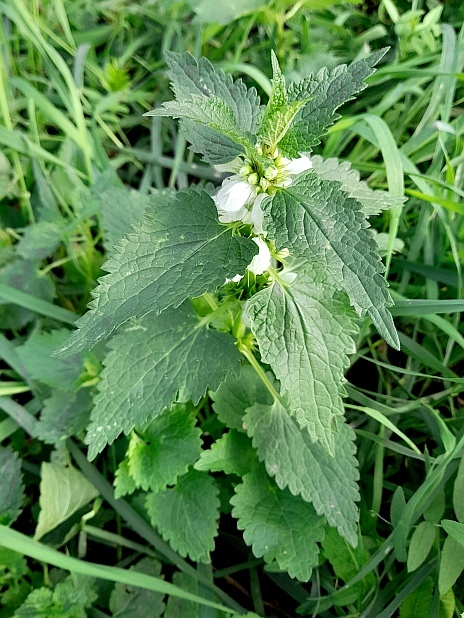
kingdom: Plantae
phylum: Tracheophyta
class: Magnoliopsida
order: Lamiales
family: Lamiaceae
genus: Lamium
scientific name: Lamium album
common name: White dead-nettle
